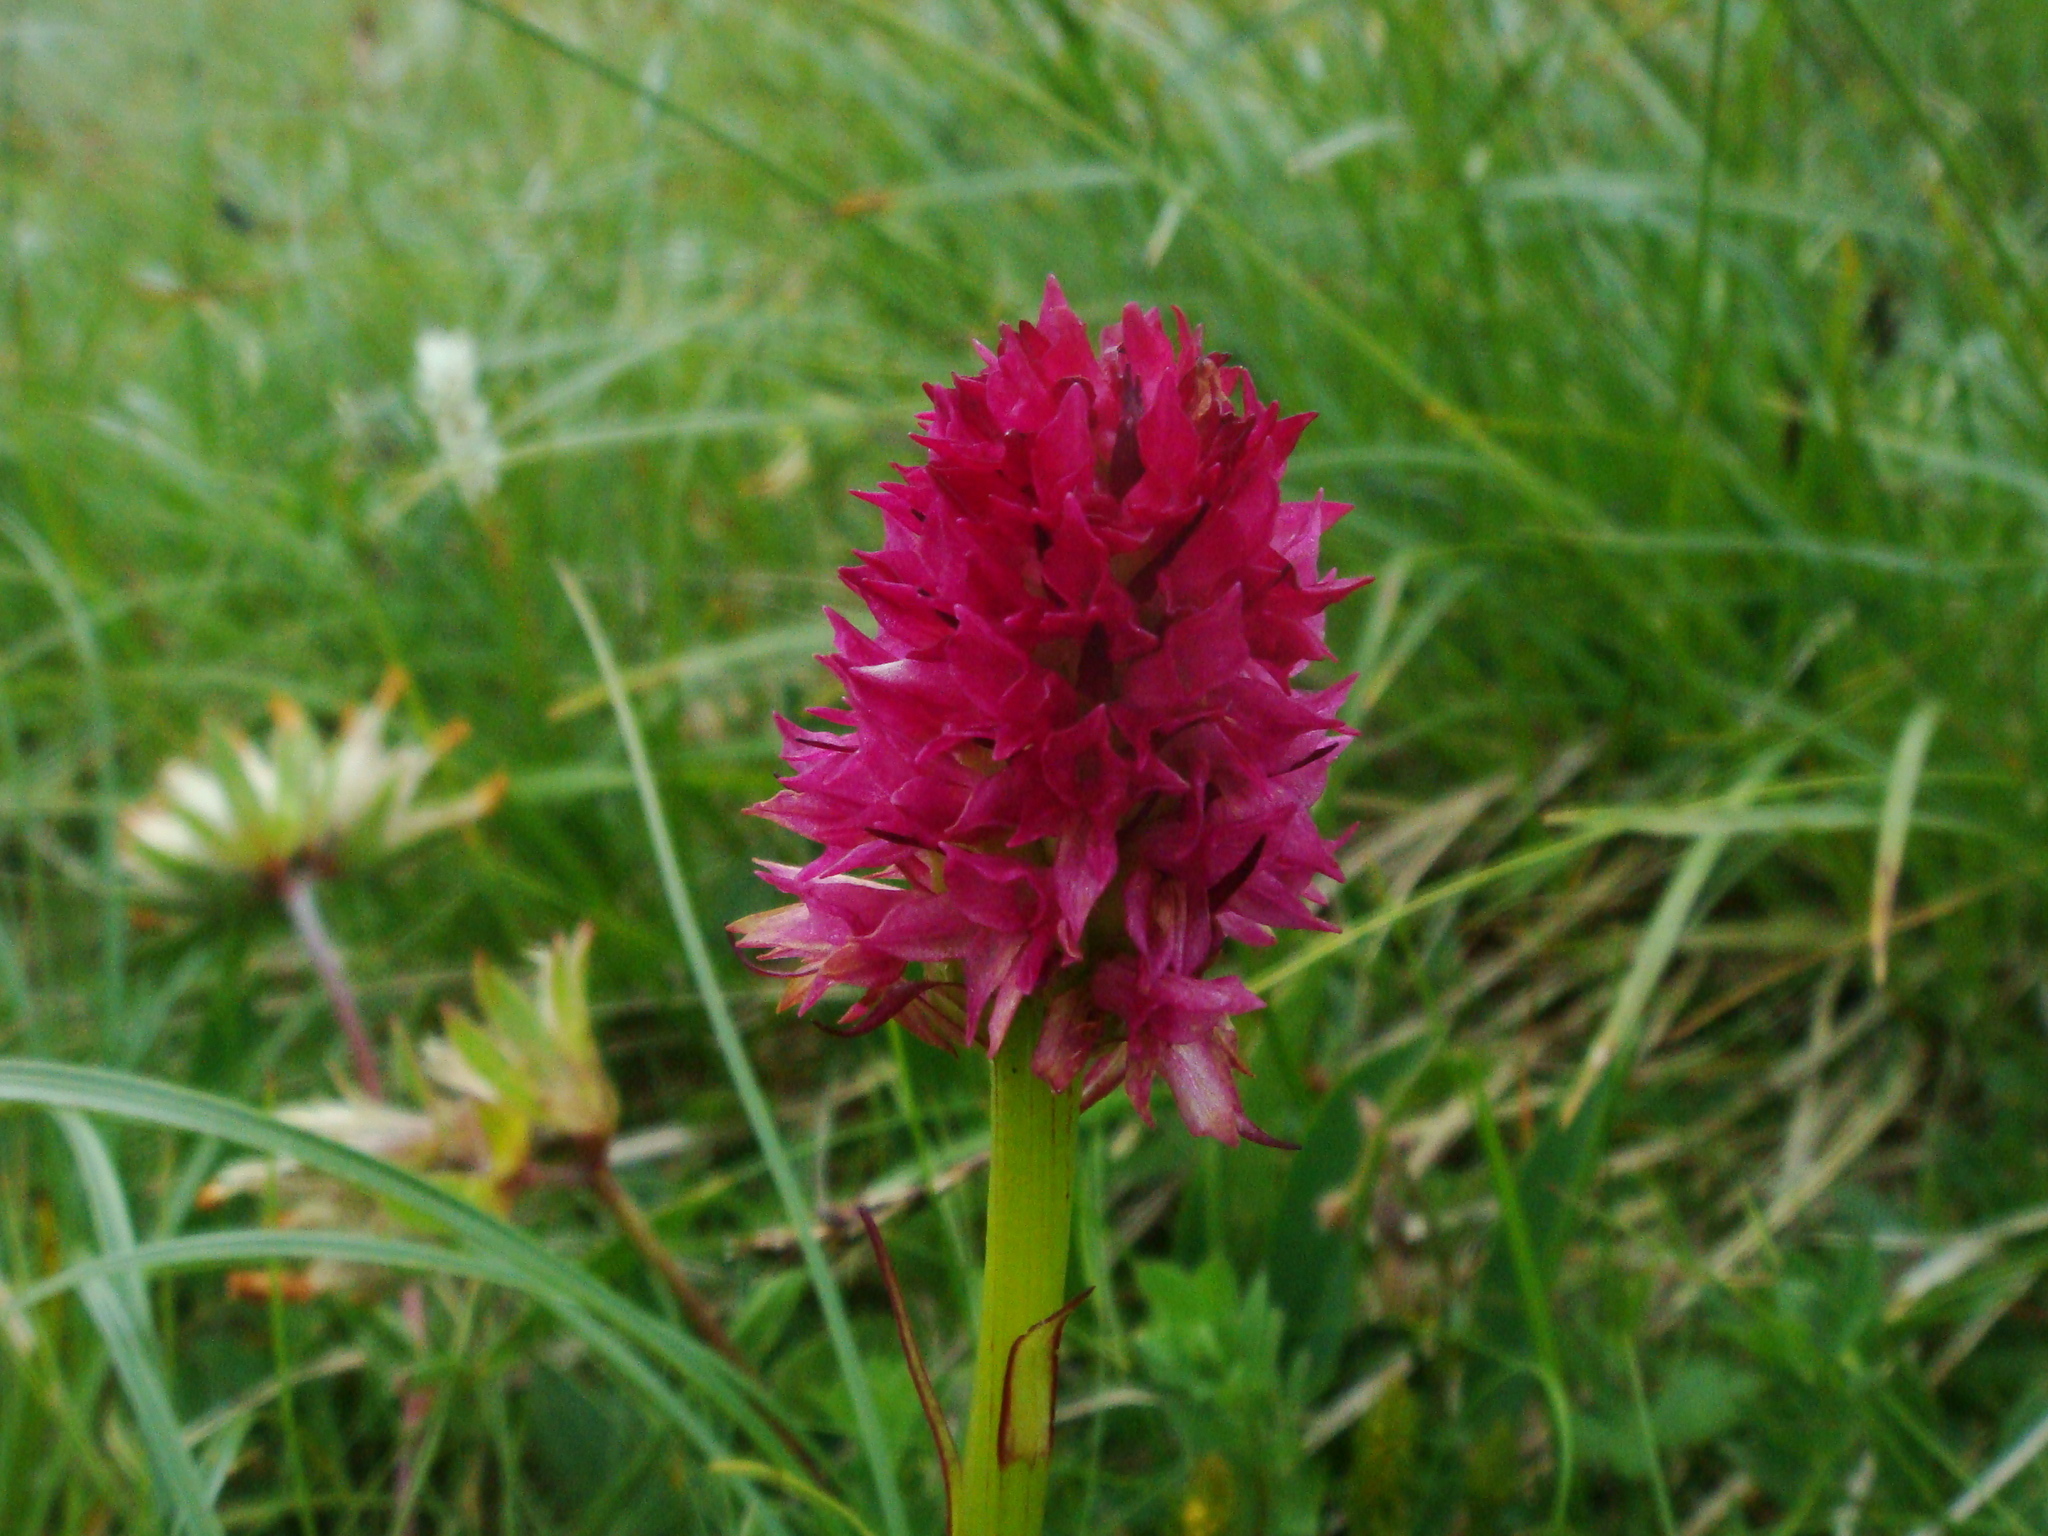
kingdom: Plantae
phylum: Tracheophyta
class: Liliopsida
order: Asparagales
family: Orchidaceae
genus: Gymnadenia
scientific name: Gymnadenia miniata
